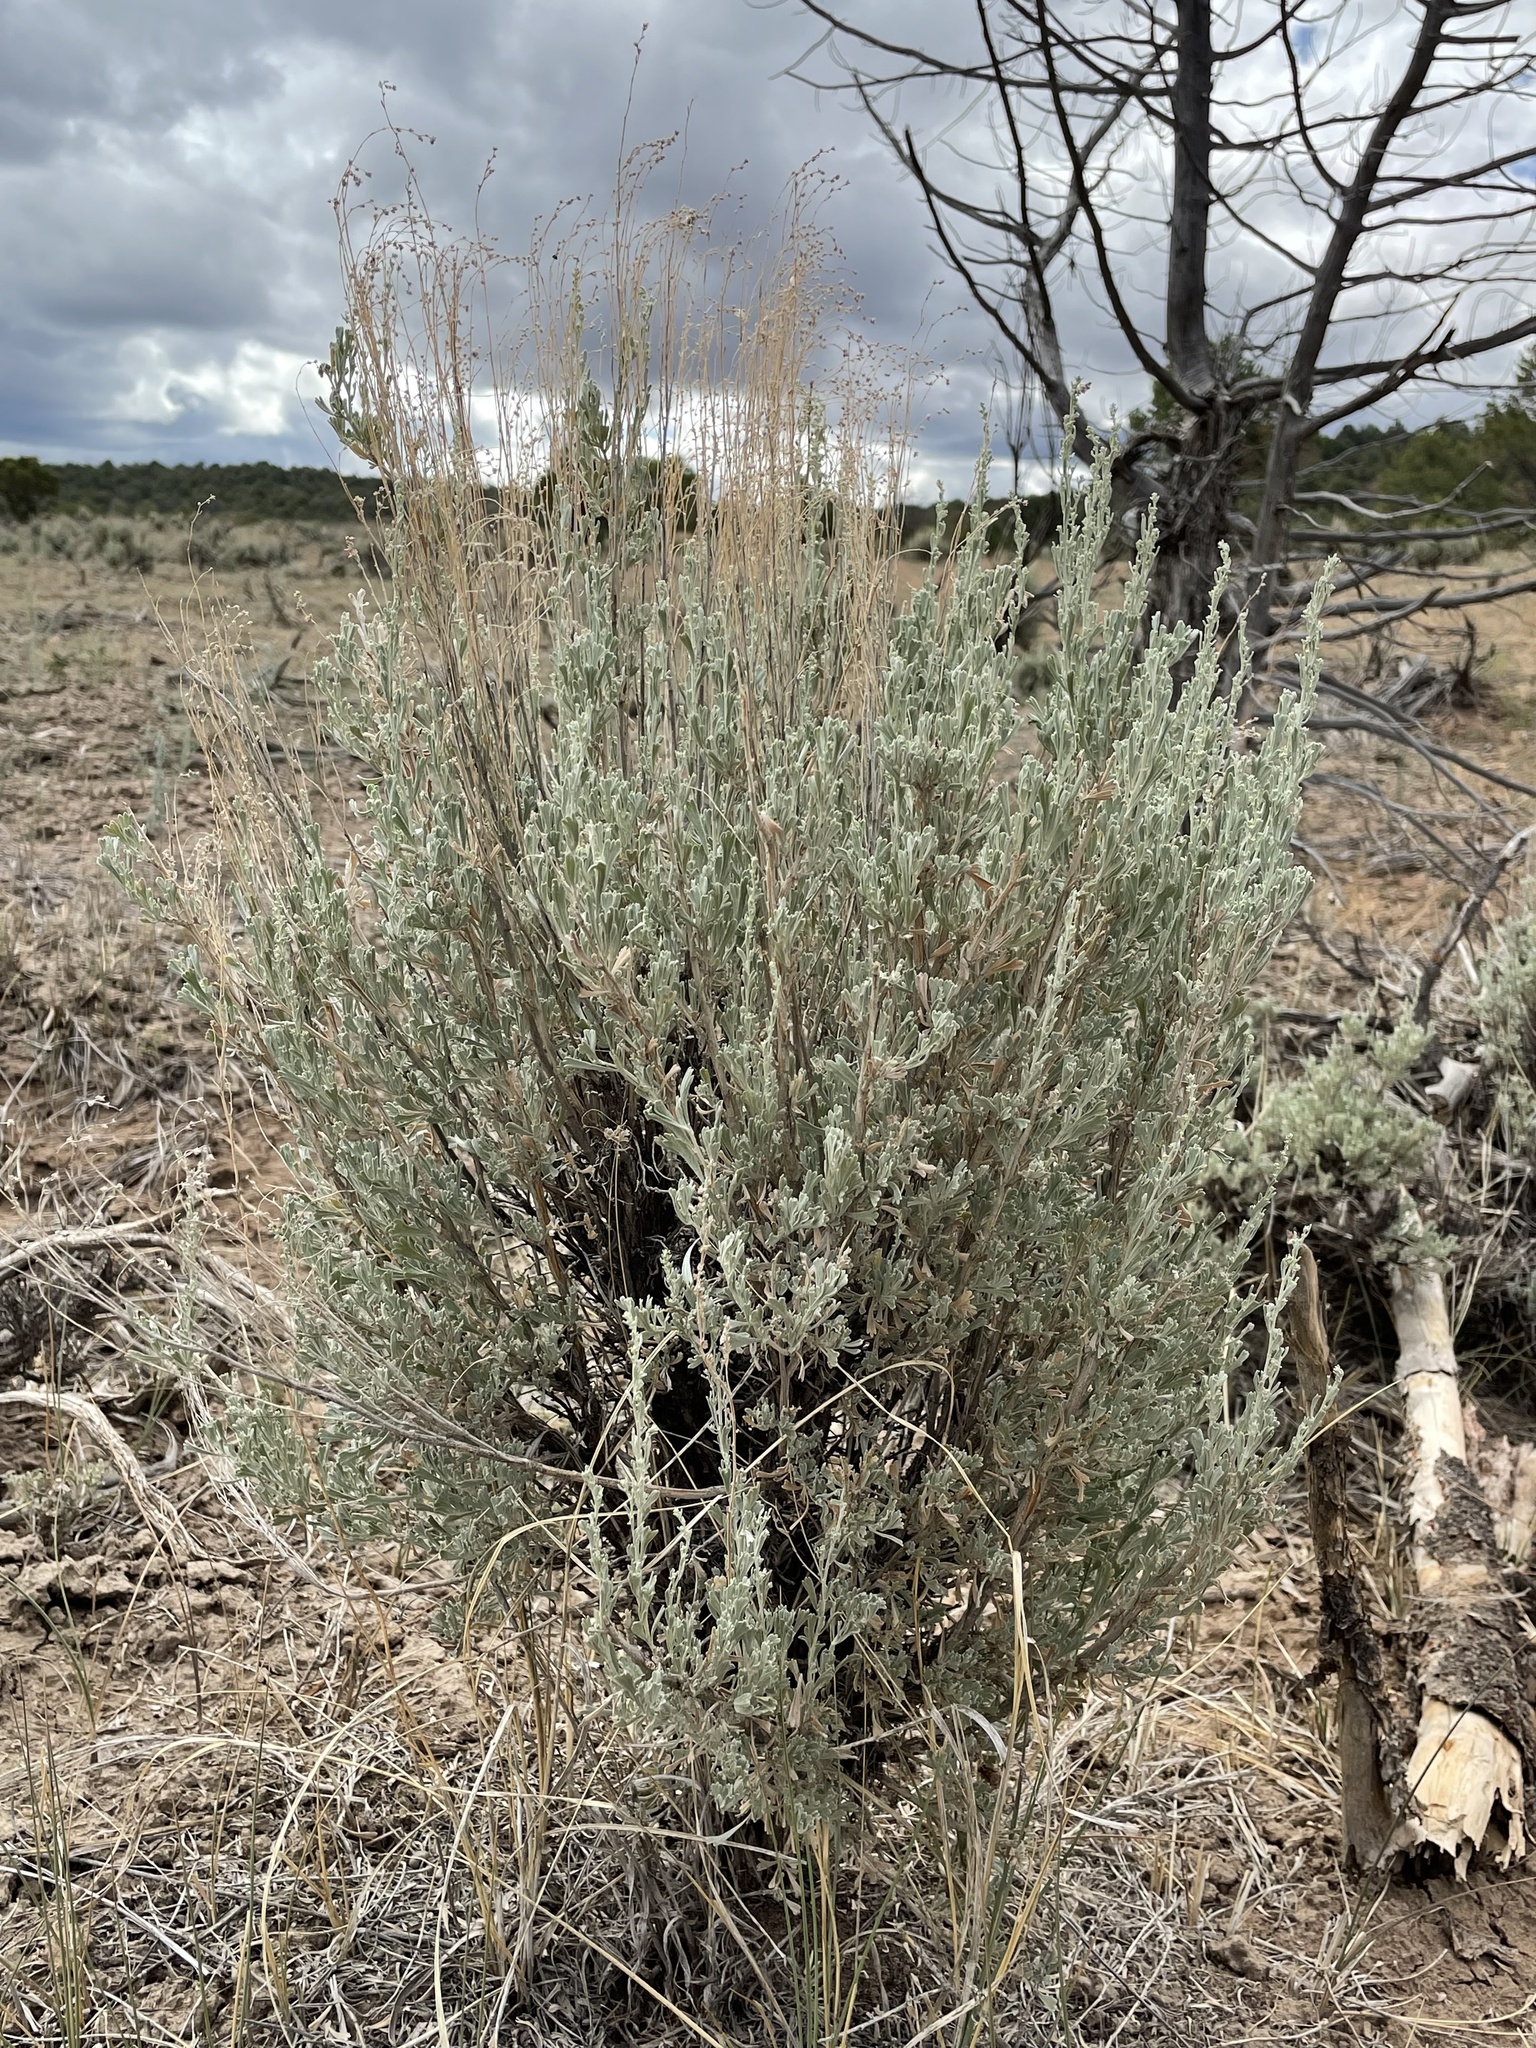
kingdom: Plantae
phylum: Tracheophyta
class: Magnoliopsida
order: Asterales
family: Asteraceae
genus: Artemisia
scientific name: Artemisia tridentata
